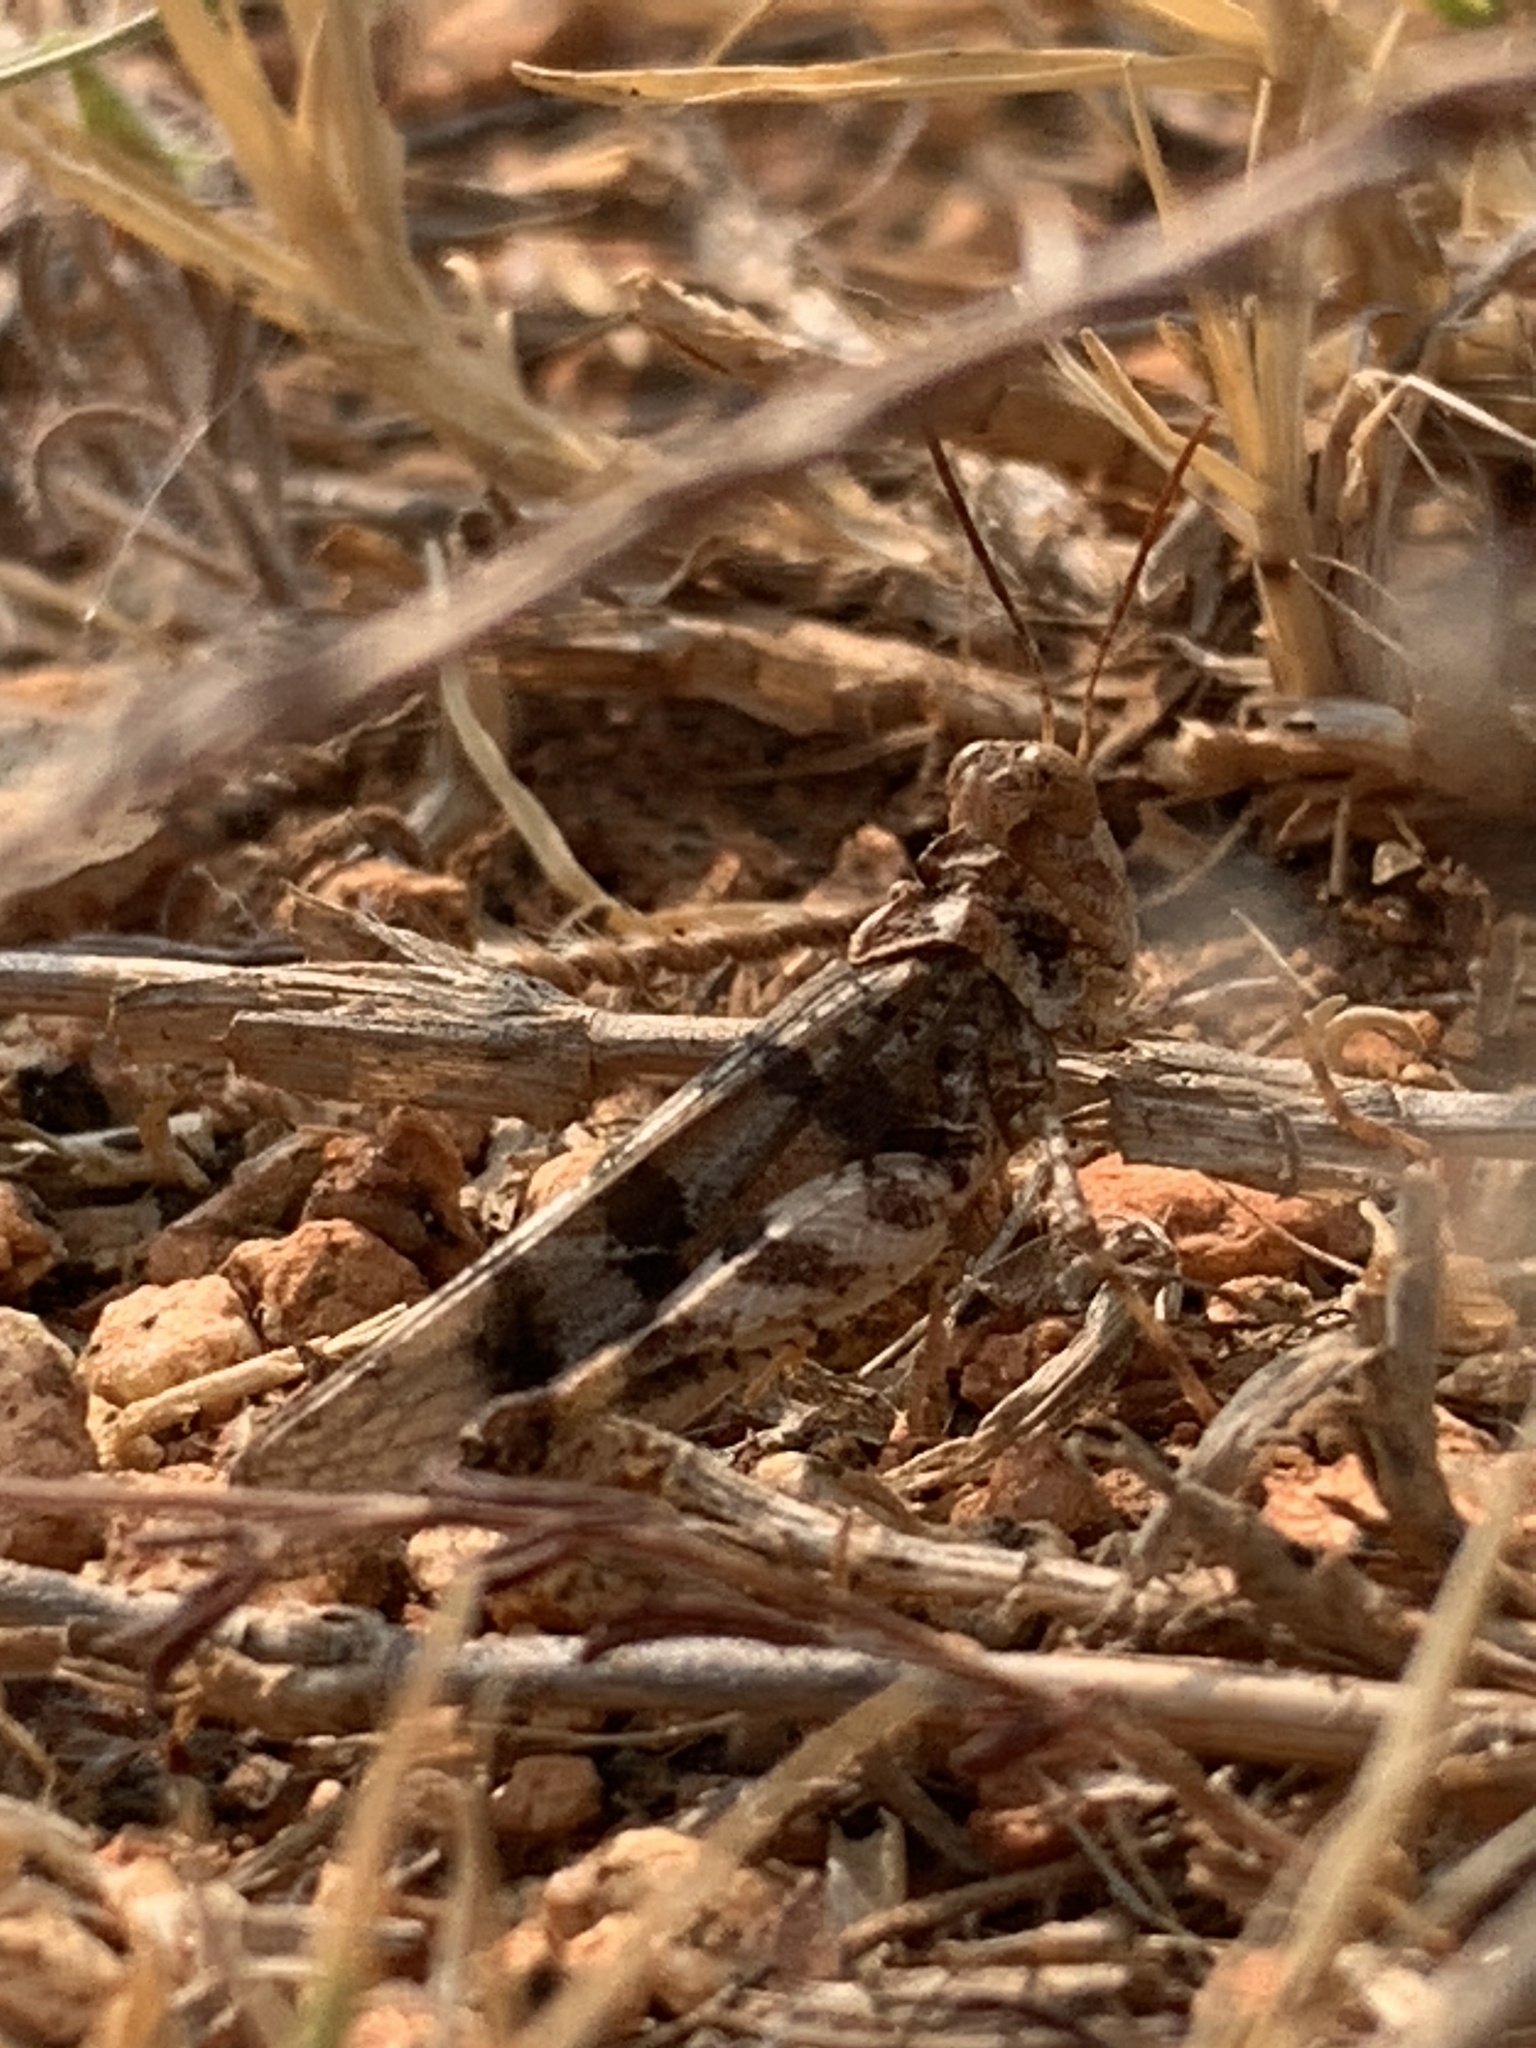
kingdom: Animalia
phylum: Arthropoda
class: Insecta
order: Orthoptera
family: Acrididae
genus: Dissosteira
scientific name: Dissosteira pictipennis
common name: California rose-winged grasshopper
